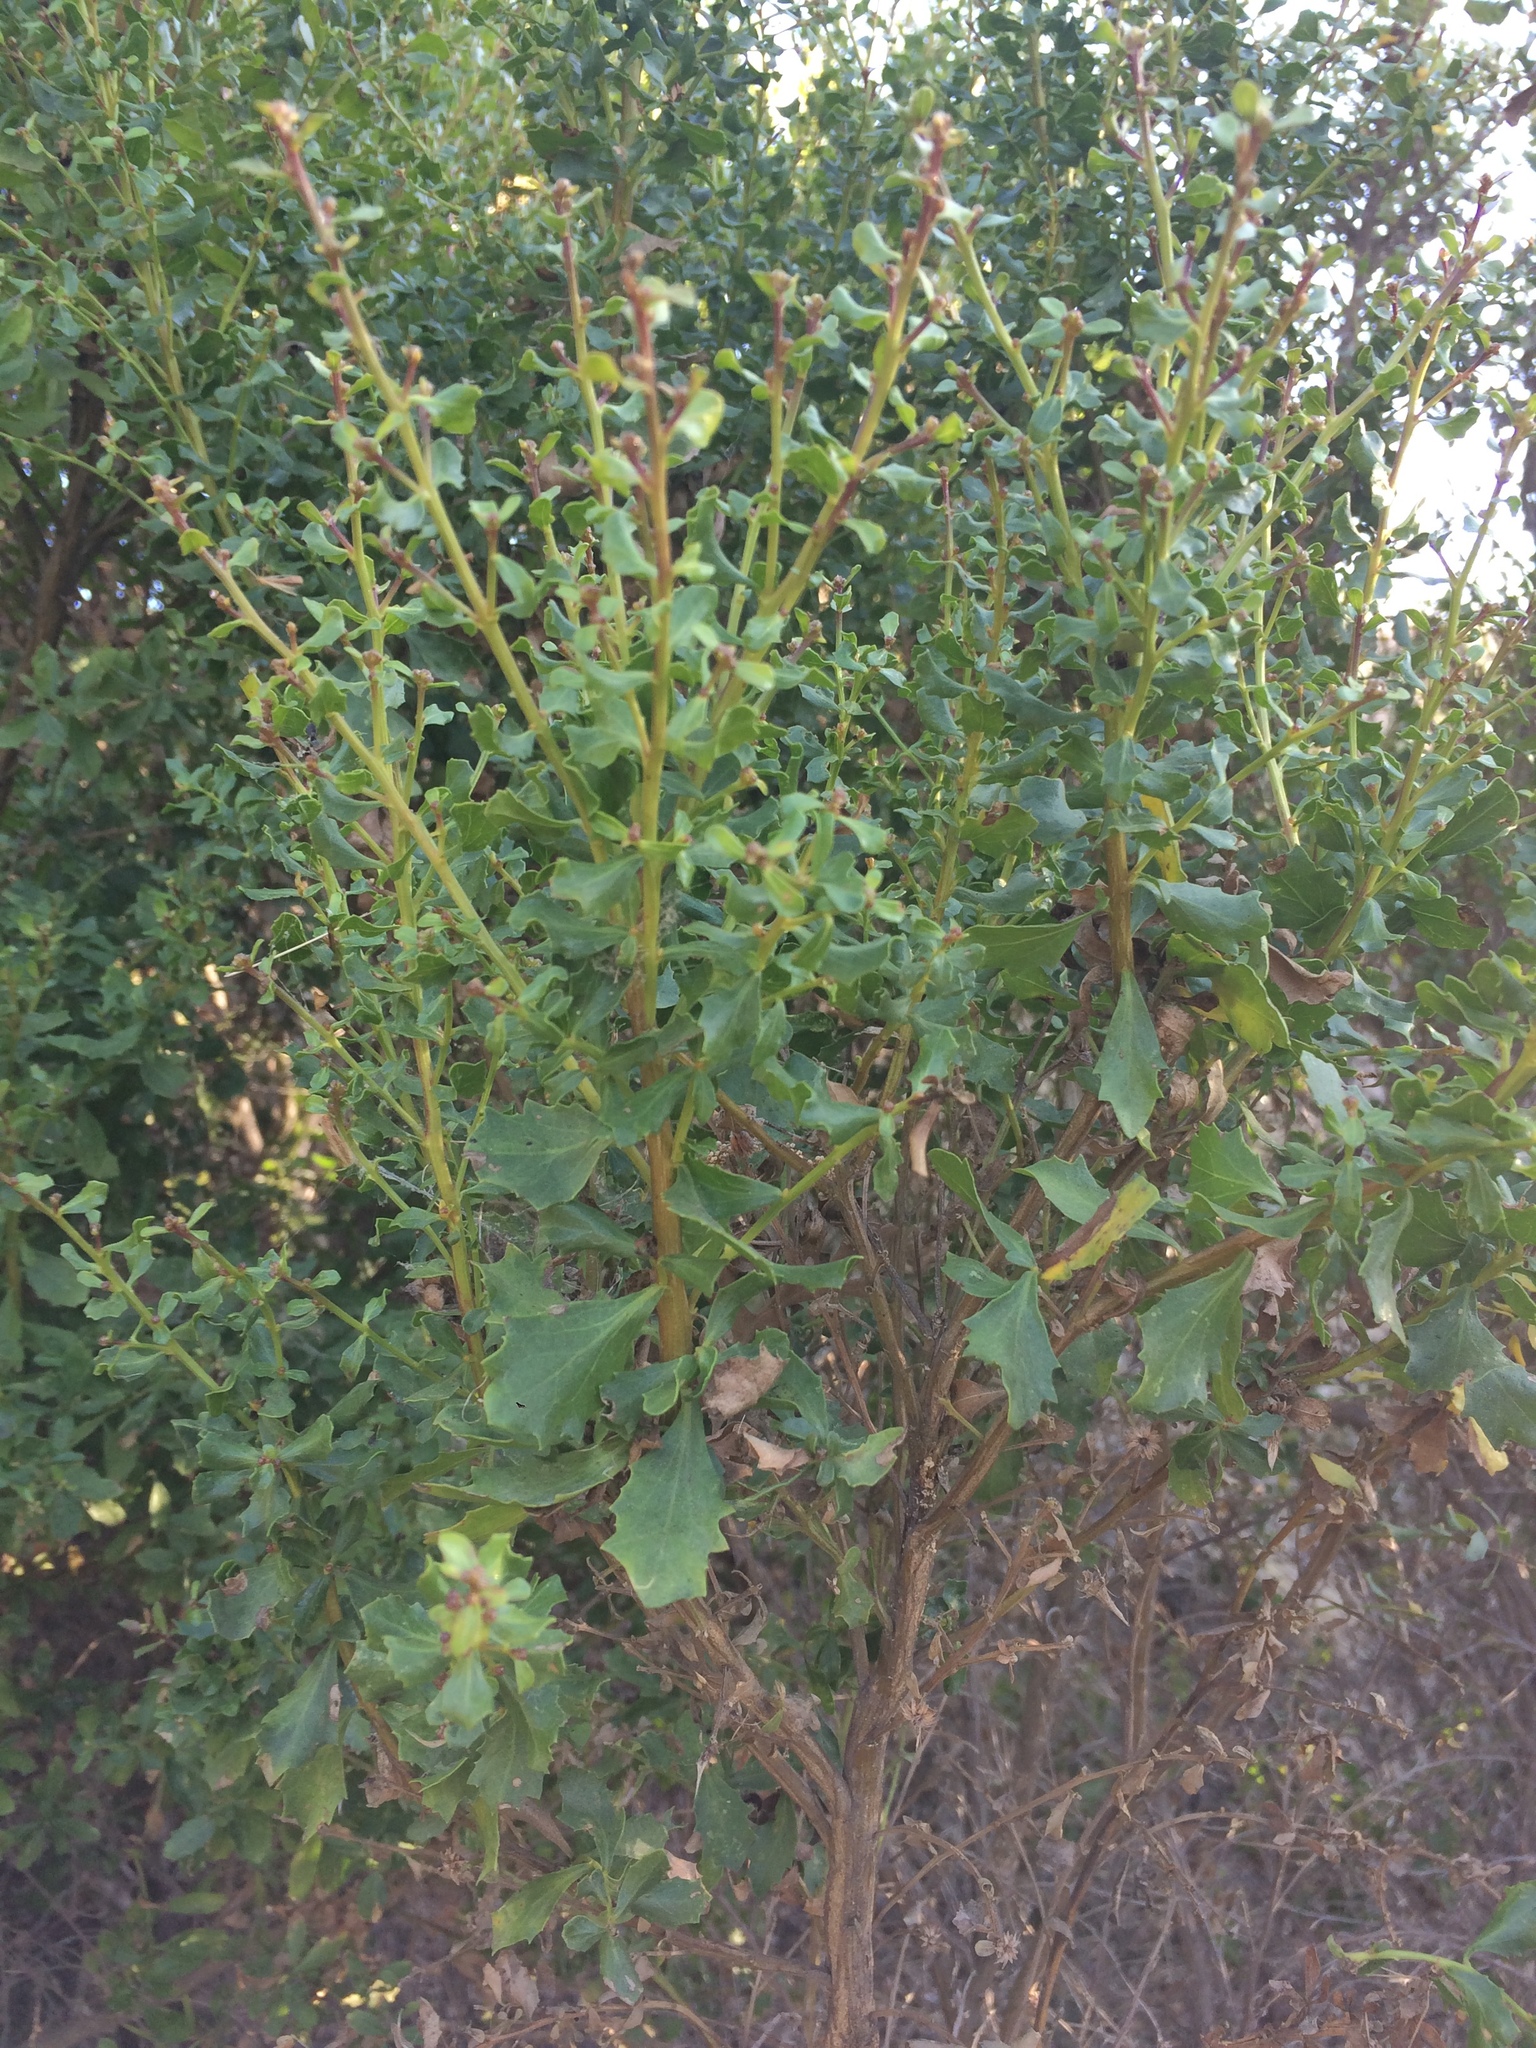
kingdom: Plantae
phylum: Tracheophyta
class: Magnoliopsida
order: Asterales
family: Asteraceae
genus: Baccharis
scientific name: Baccharis pilularis
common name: Coyotebrush
